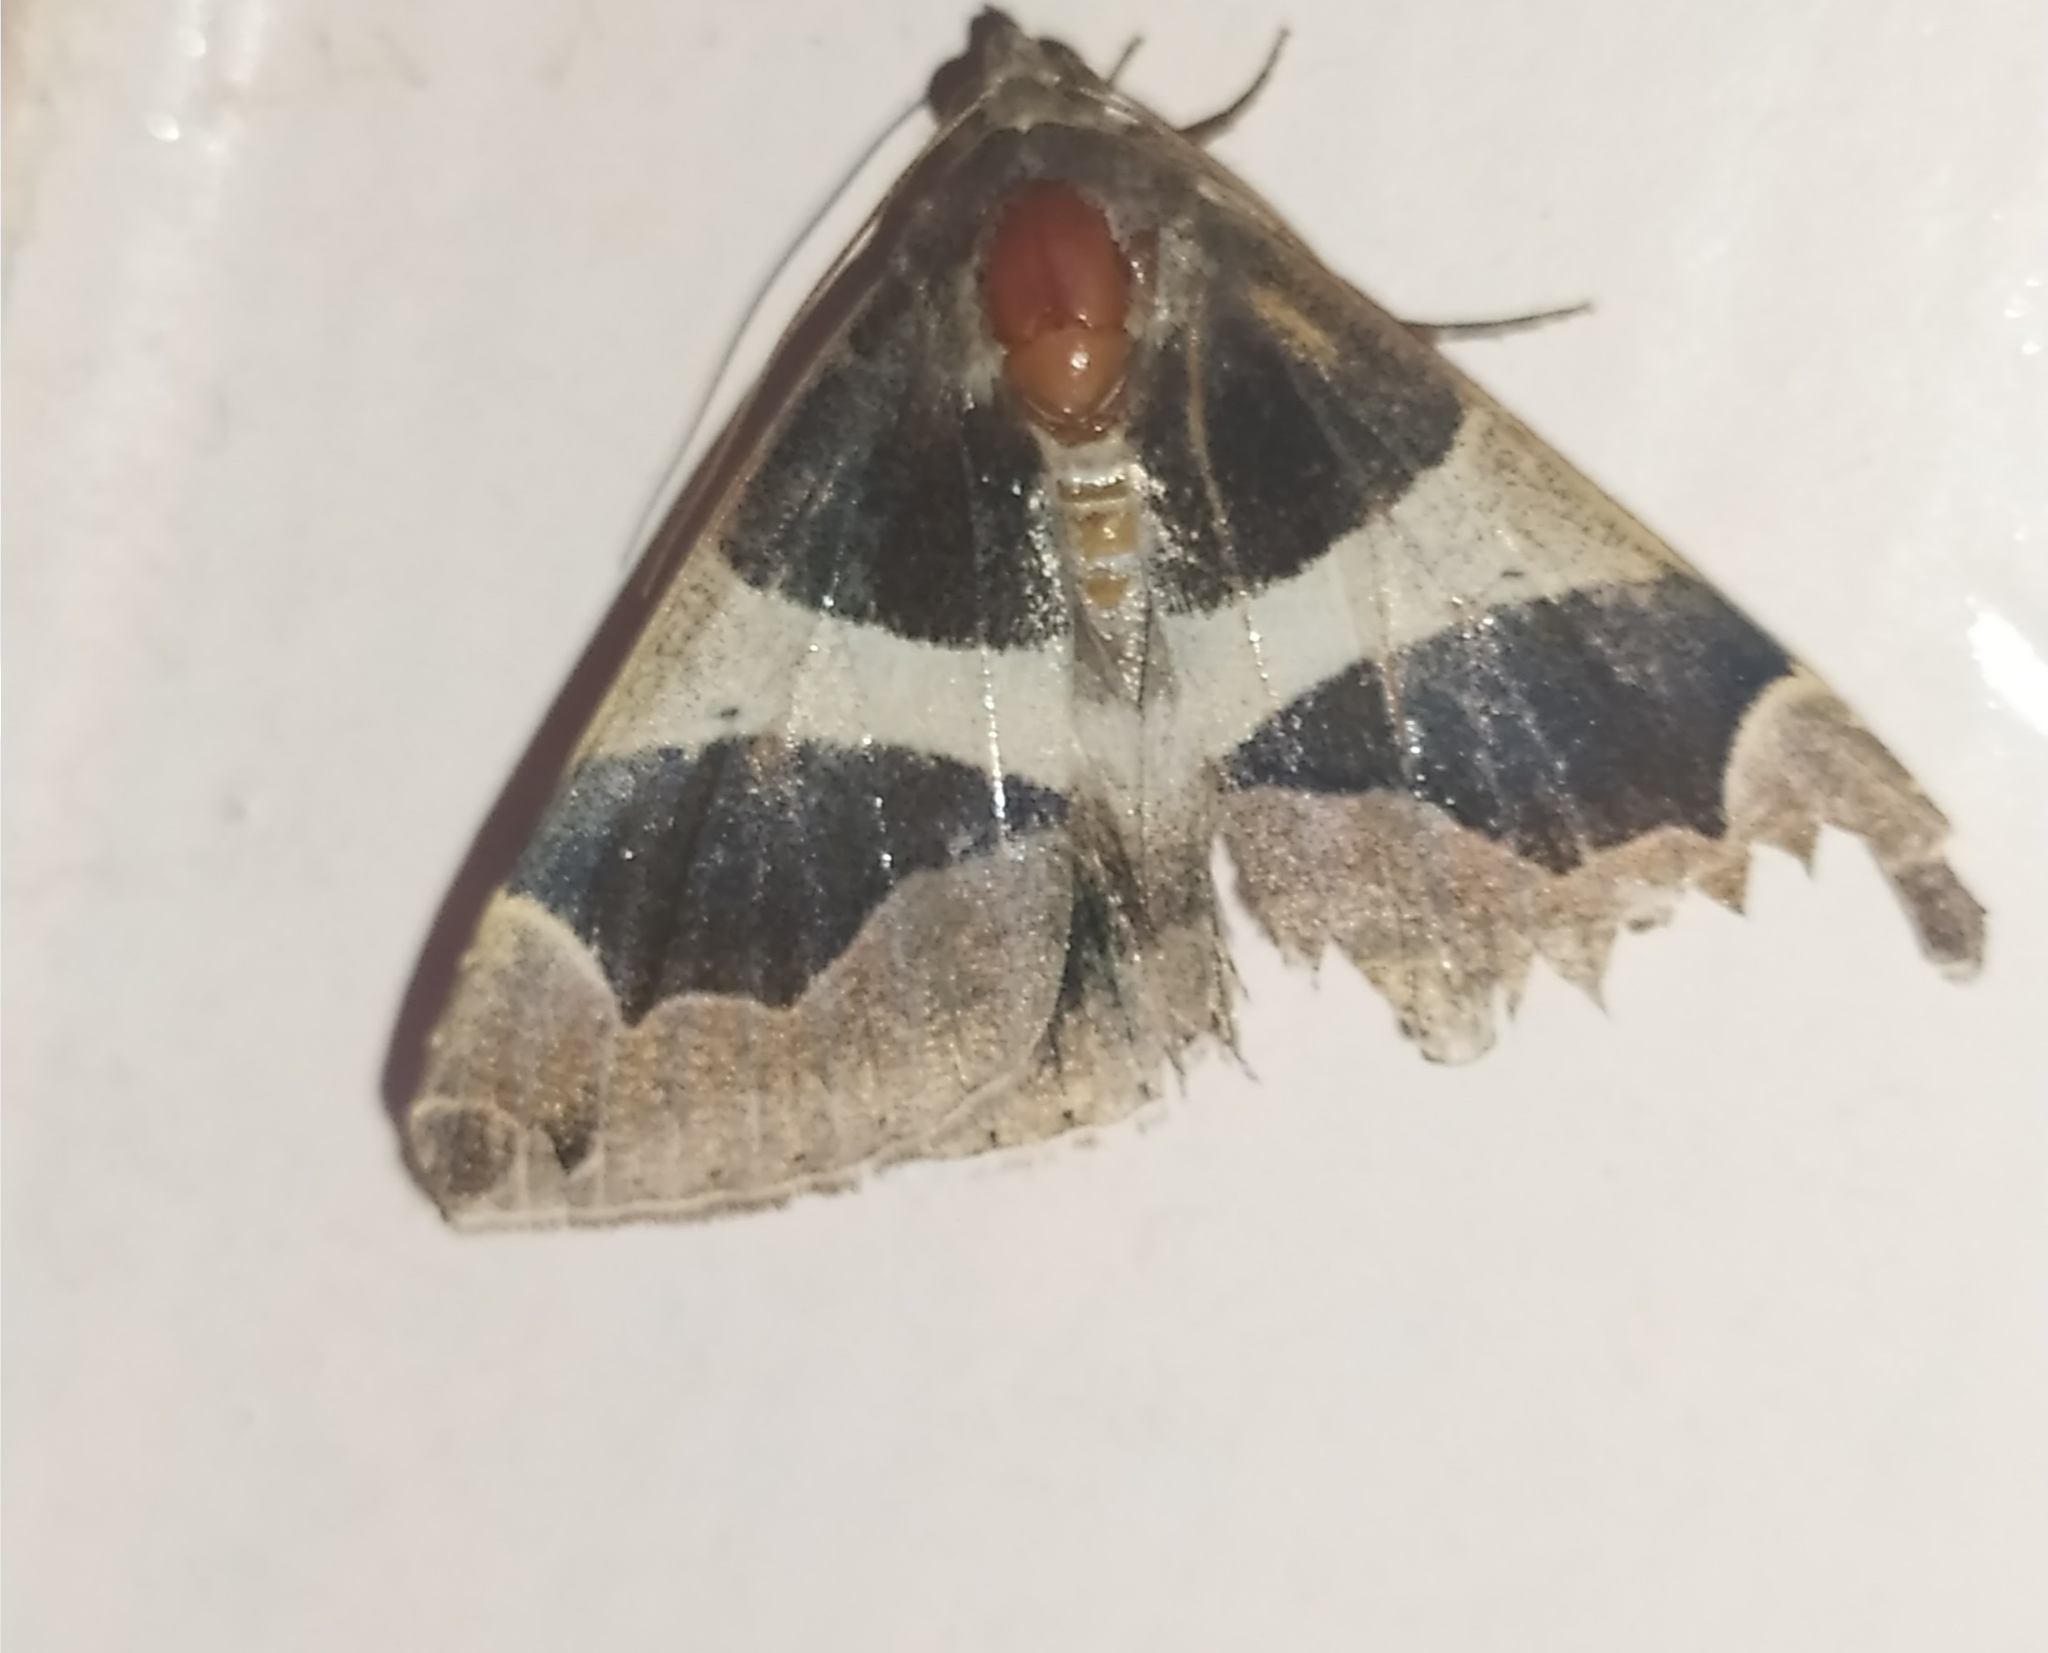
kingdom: Animalia
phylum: Arthropoda
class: Insecta
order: Lepidoptera
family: Erebidae
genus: Dysgonia
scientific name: Dysgonia torrida
